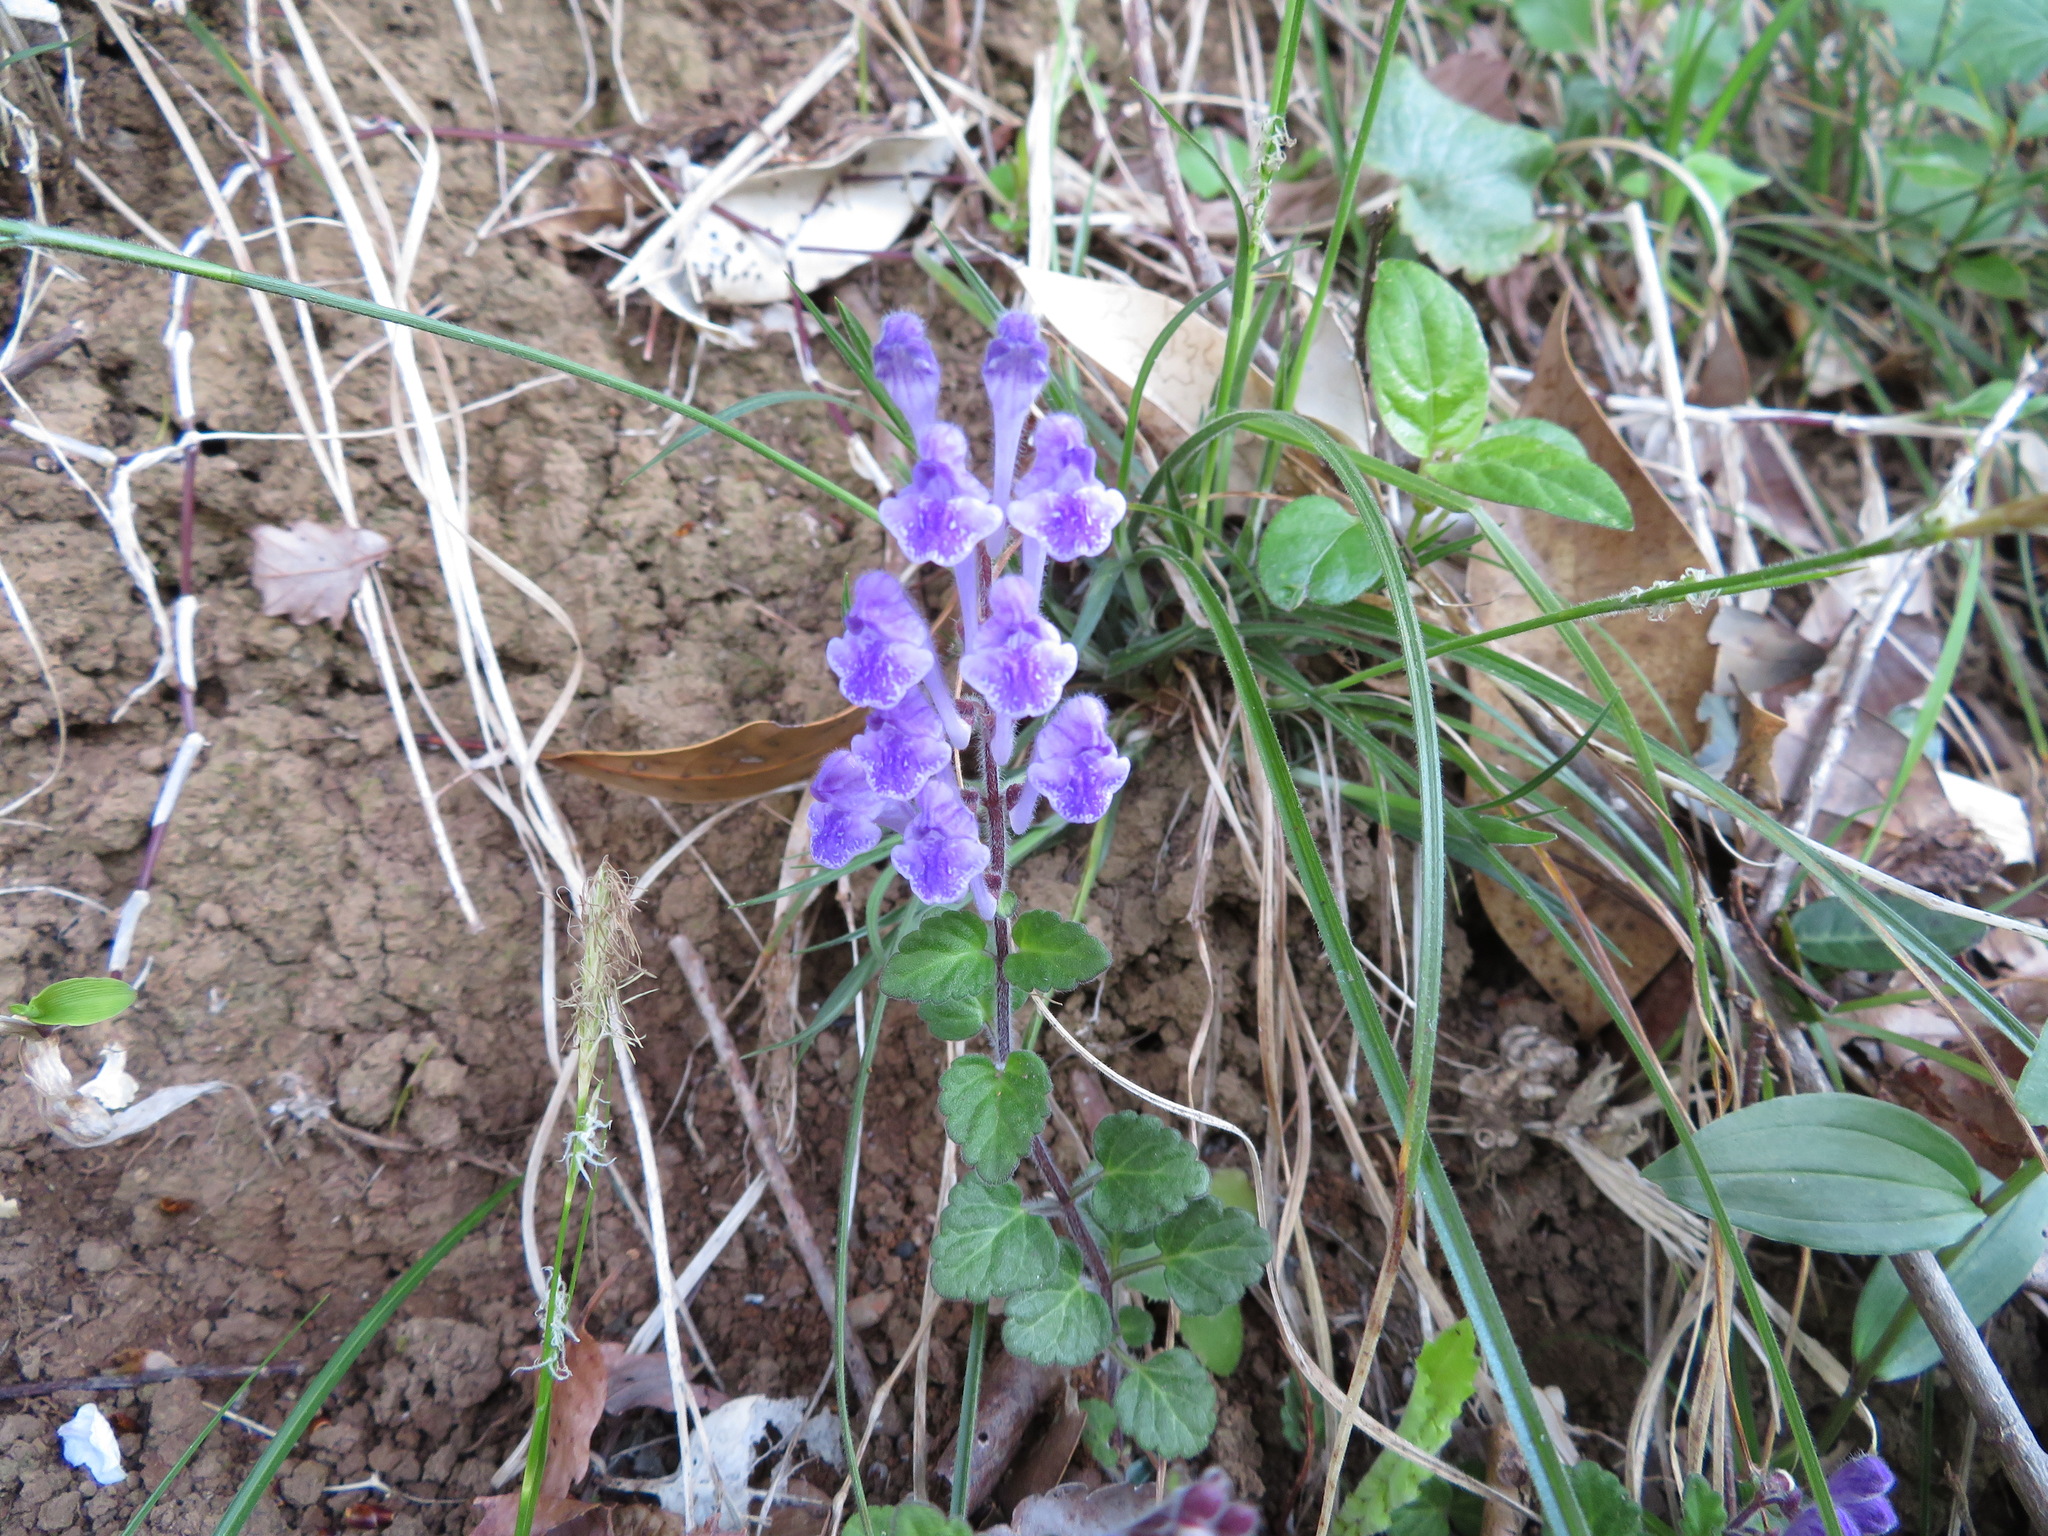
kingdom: Plantae
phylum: Tracheophyta
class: Magnoliopsida
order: Lamiales
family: Lamiaceae
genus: Scutellaria
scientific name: Scutellaria indica
